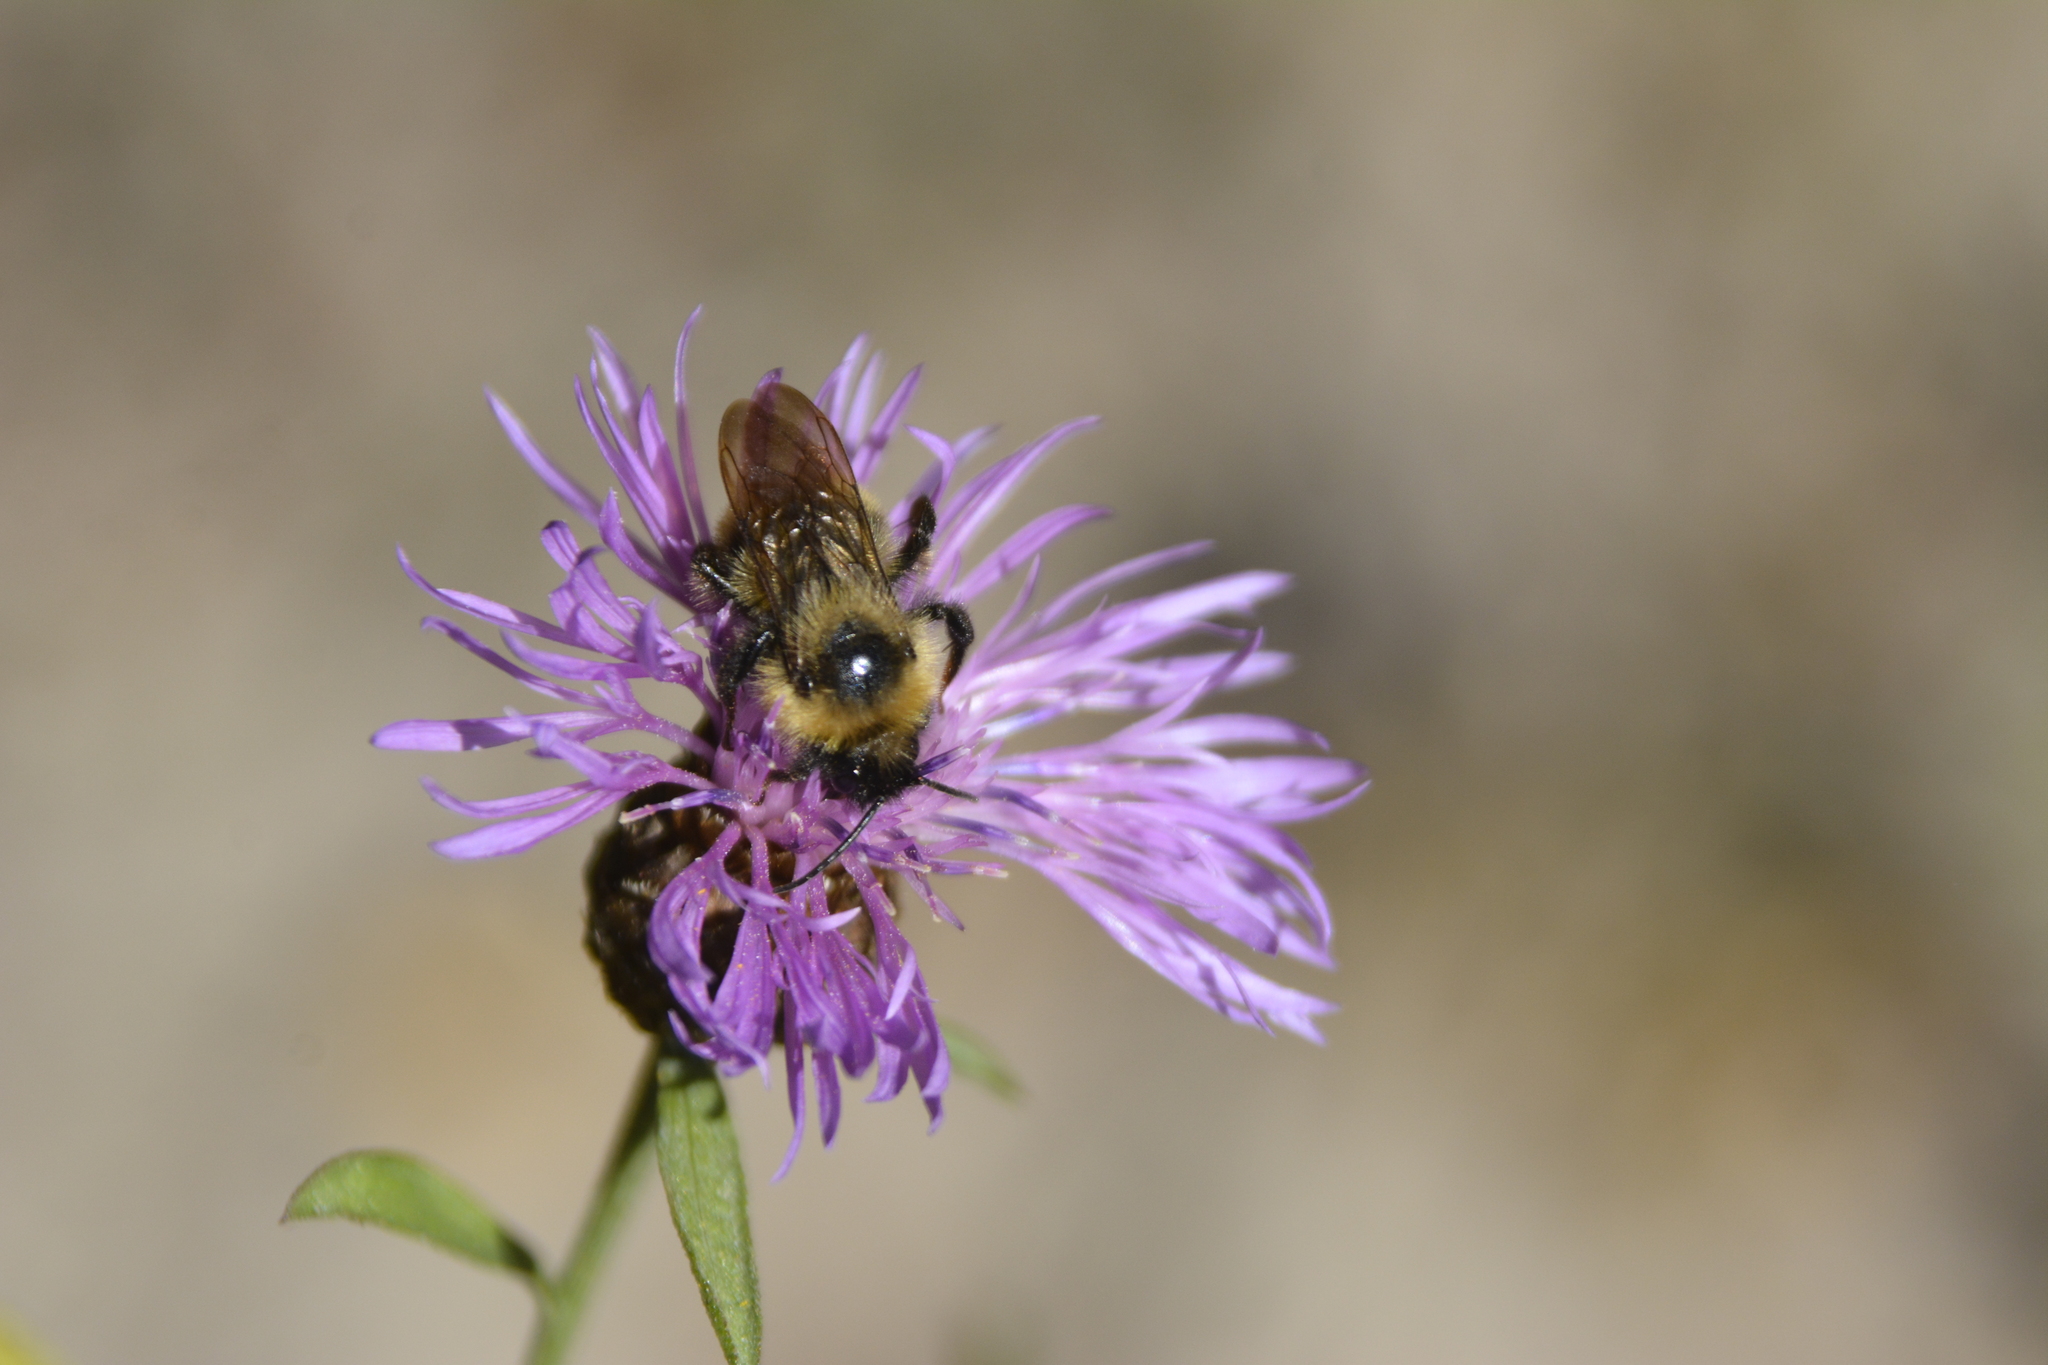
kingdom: Animalia
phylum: Arthropoda
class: Insecta
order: Hymenoptera
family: Apidae
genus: Bombus
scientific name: Bombus
